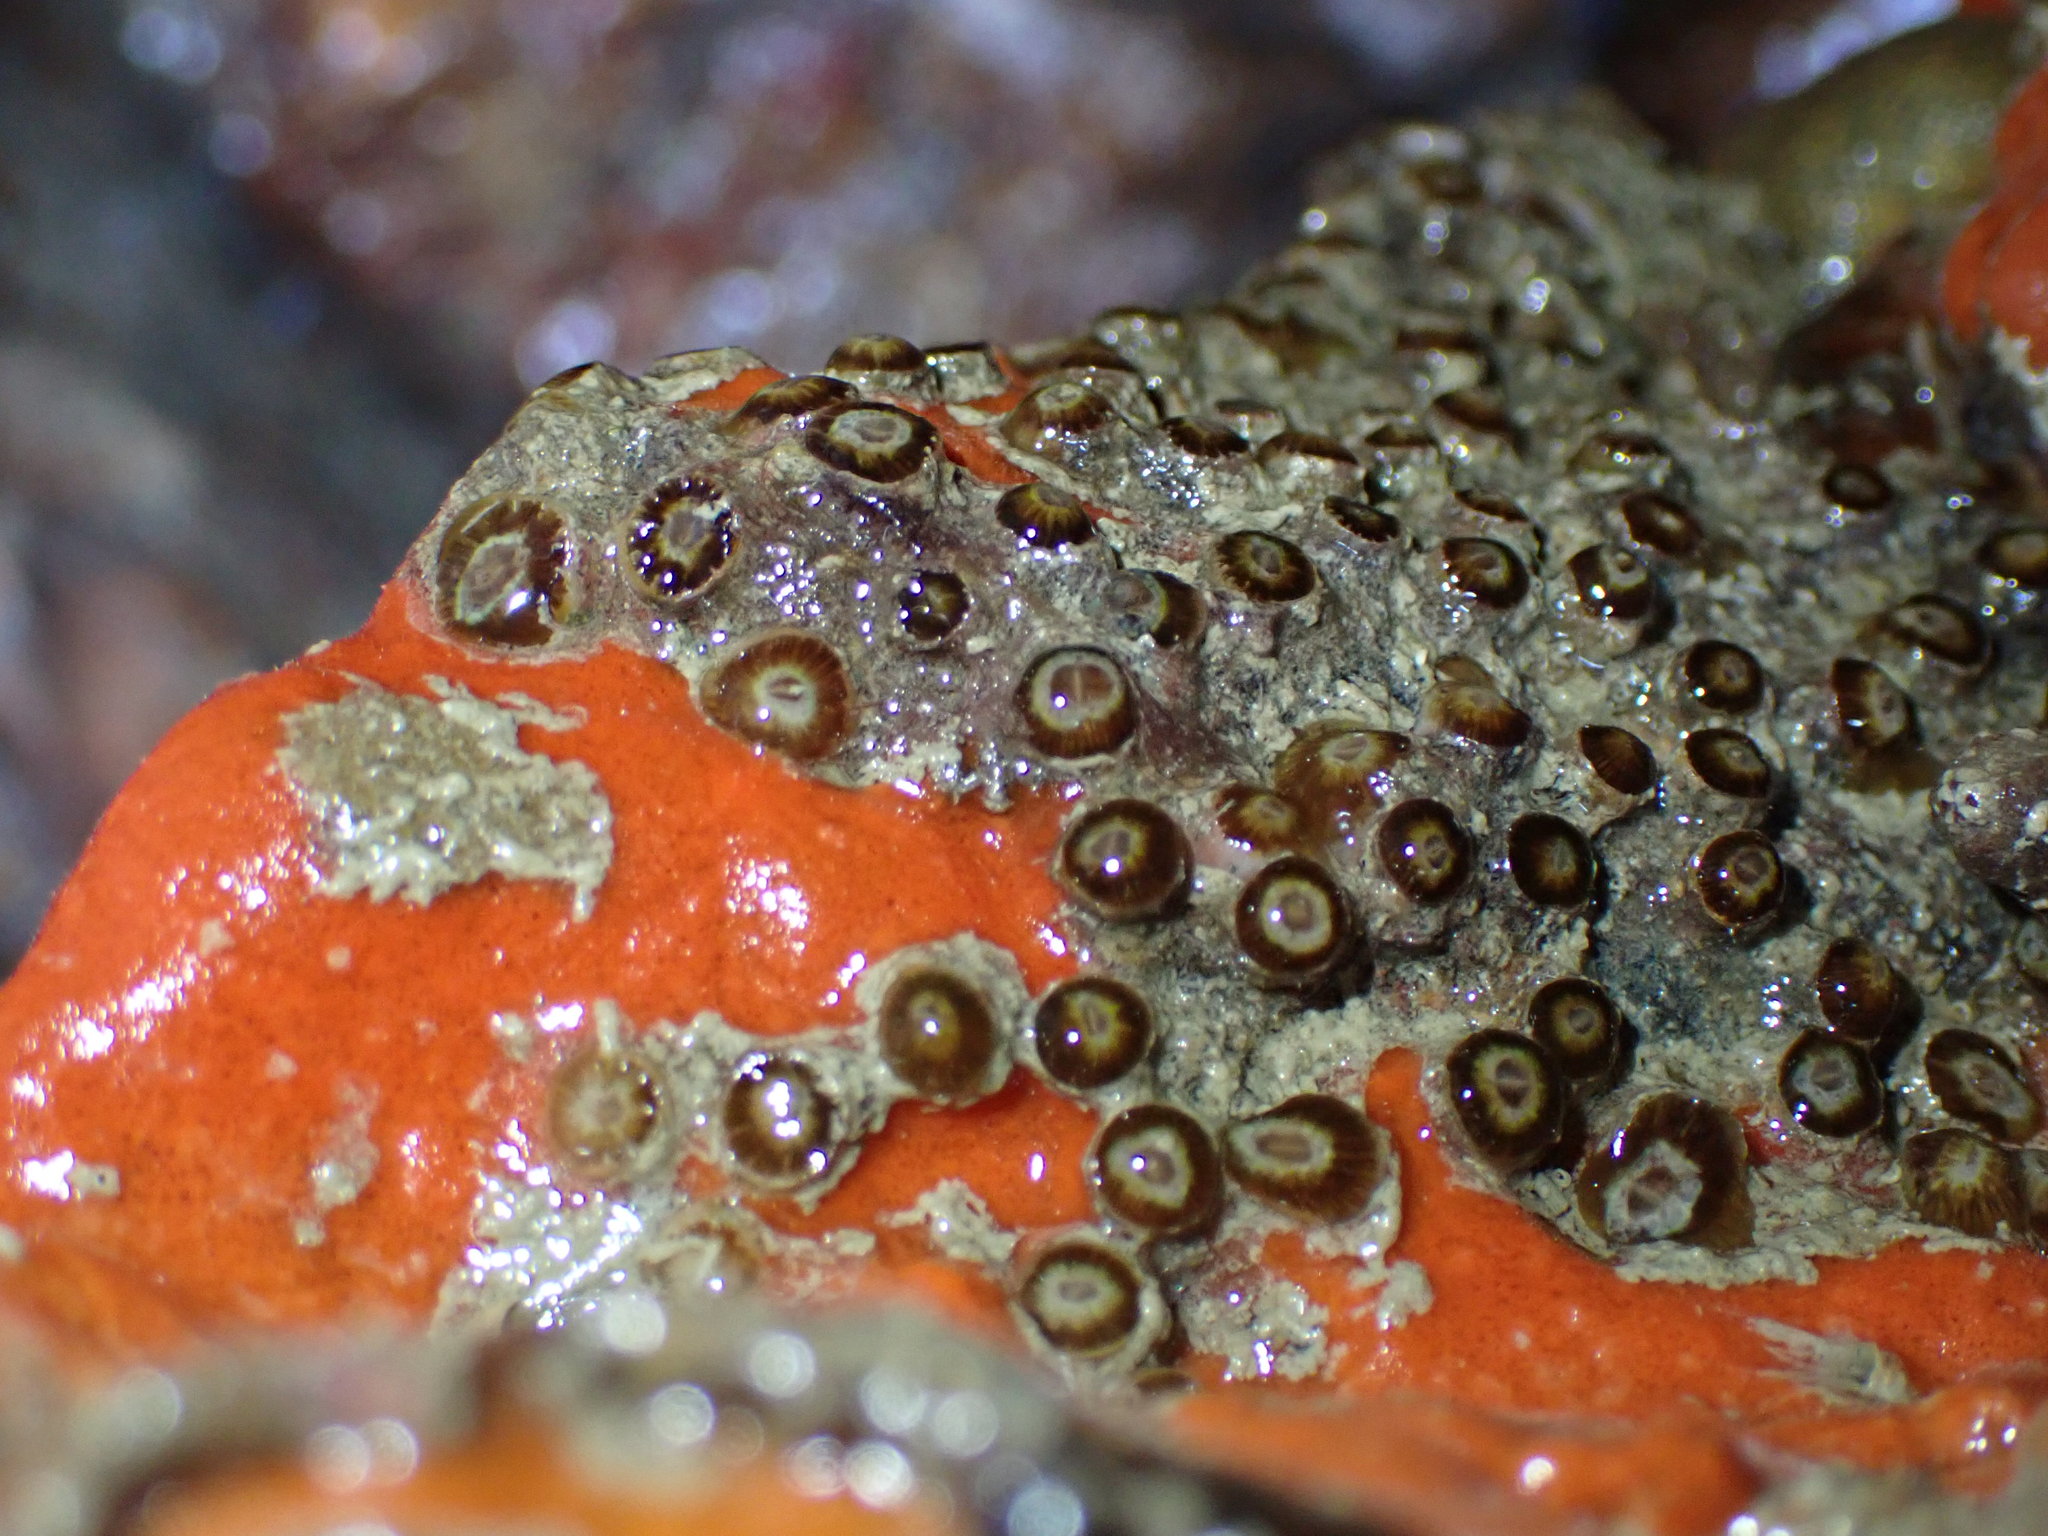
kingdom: Animalia
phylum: Cnidaria
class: Anthozoa
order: Scleractinia
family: Rhizangiidae
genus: Culicia
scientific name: Culicia rubeola
